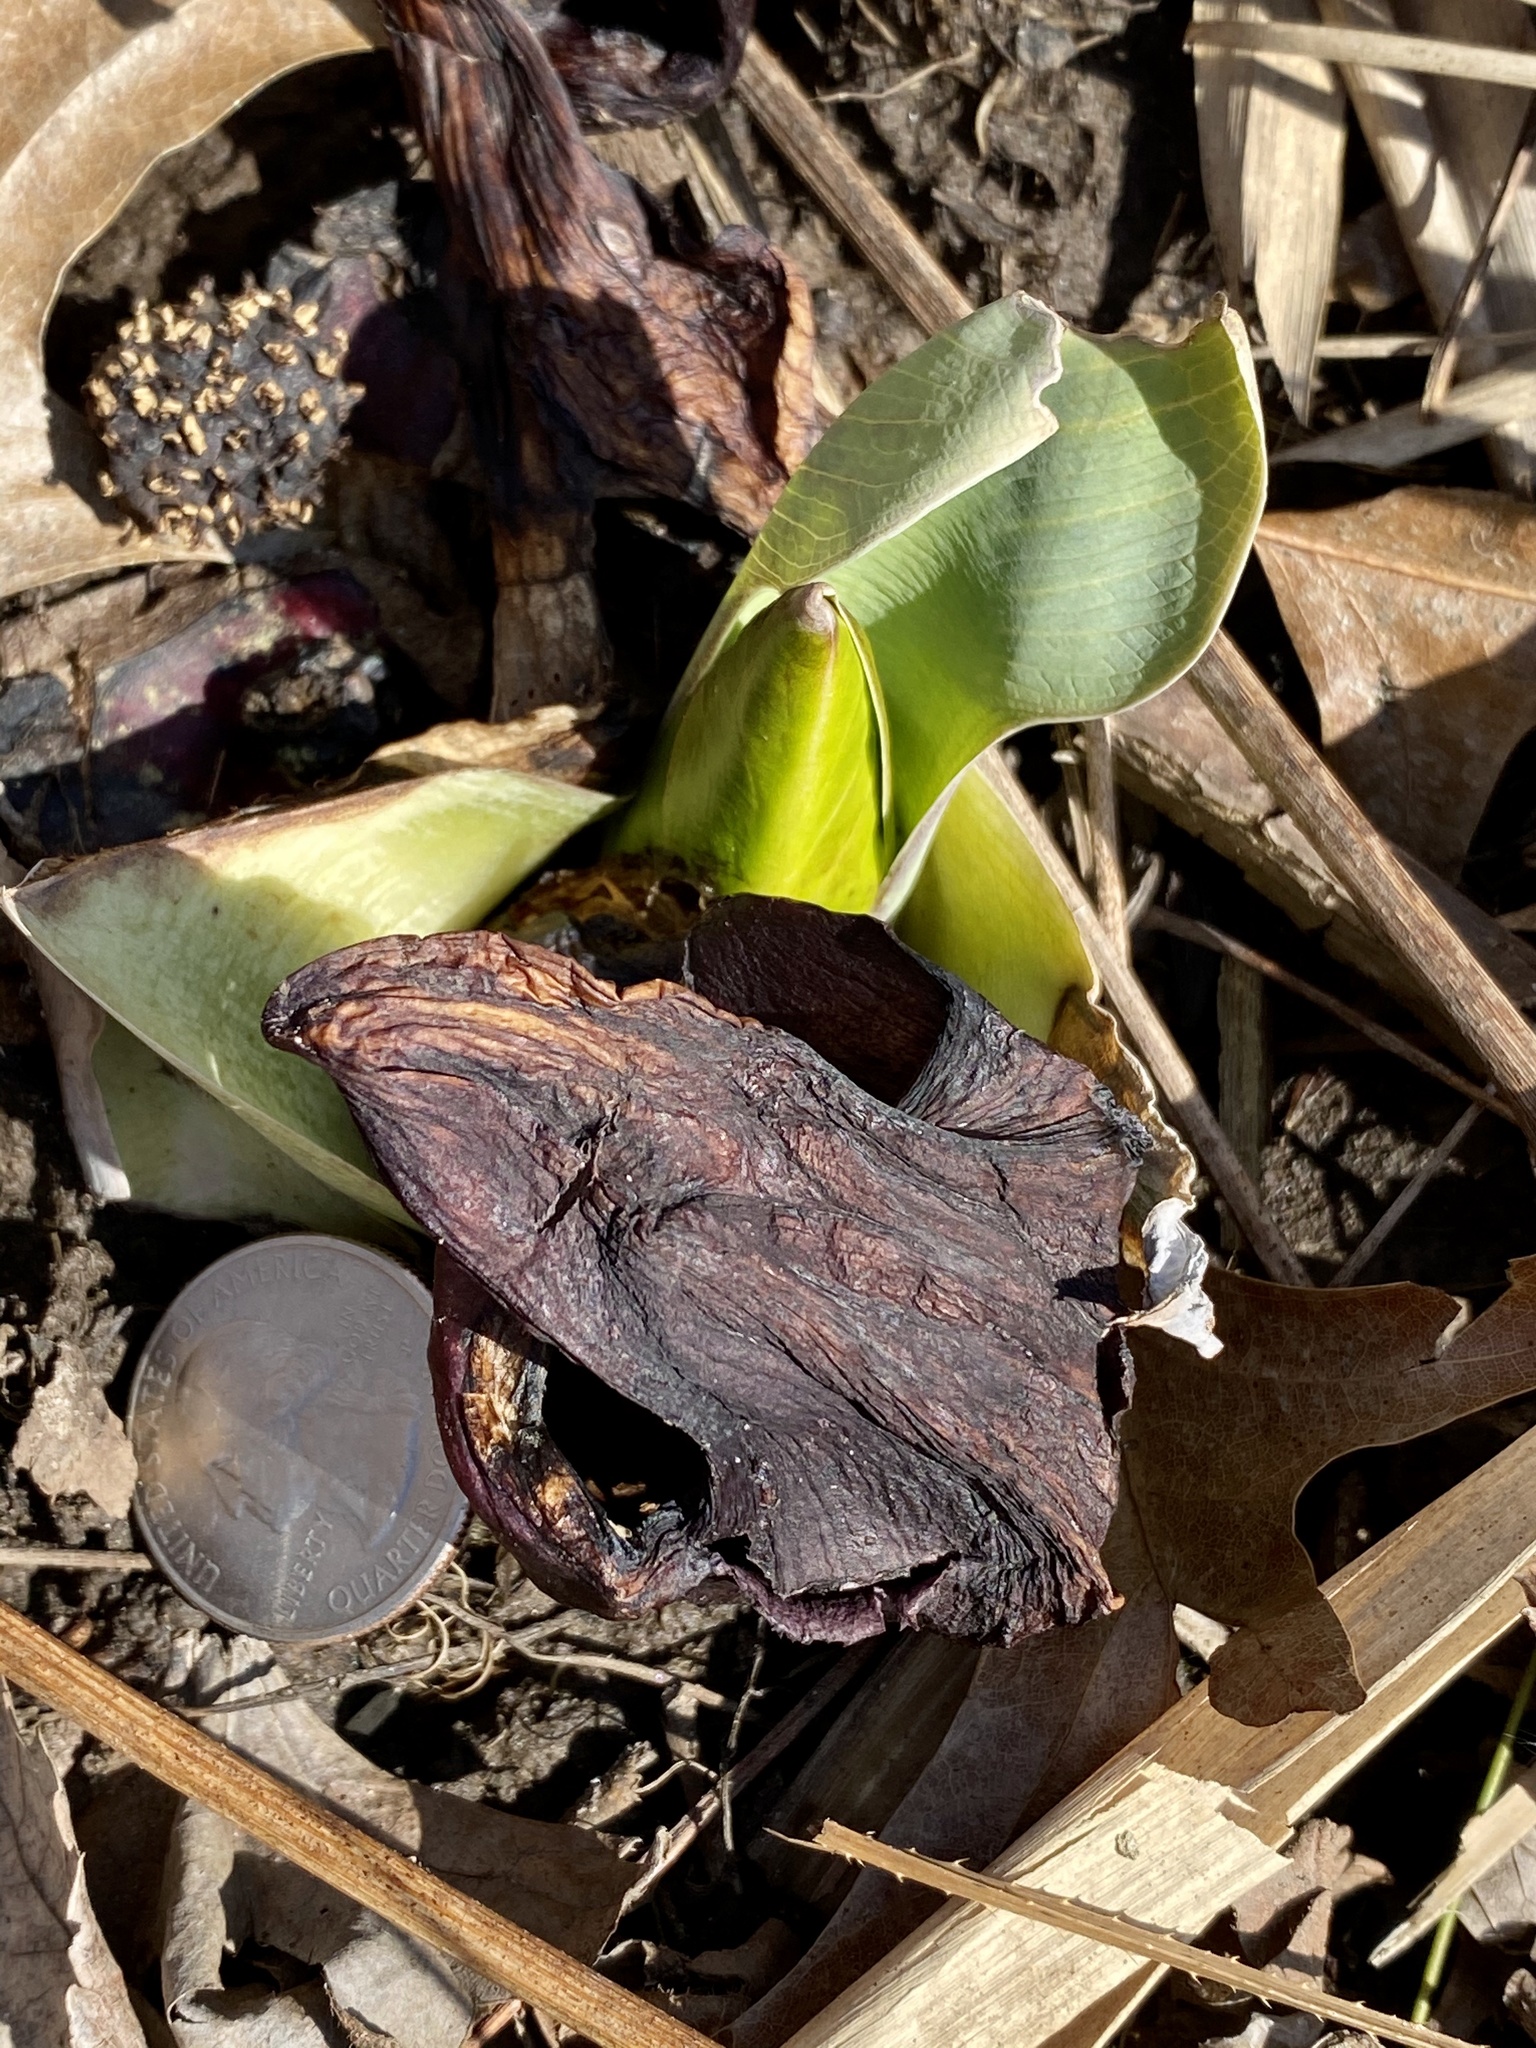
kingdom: Plantae
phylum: Tracheophyta
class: Liliopsida
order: Alismatales
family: Araceae
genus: Symplocarpus
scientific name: Symplocarpus foetidus
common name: Eastern skunk cabbage
